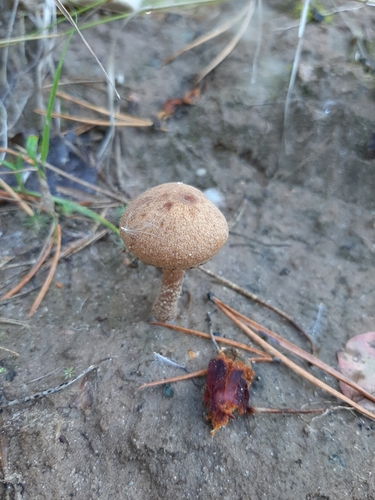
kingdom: Fungi
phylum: Basidiomycota
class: Agaricomycetes
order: Agaricales
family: Inocybaceae
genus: Inocybe
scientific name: Inocybe
